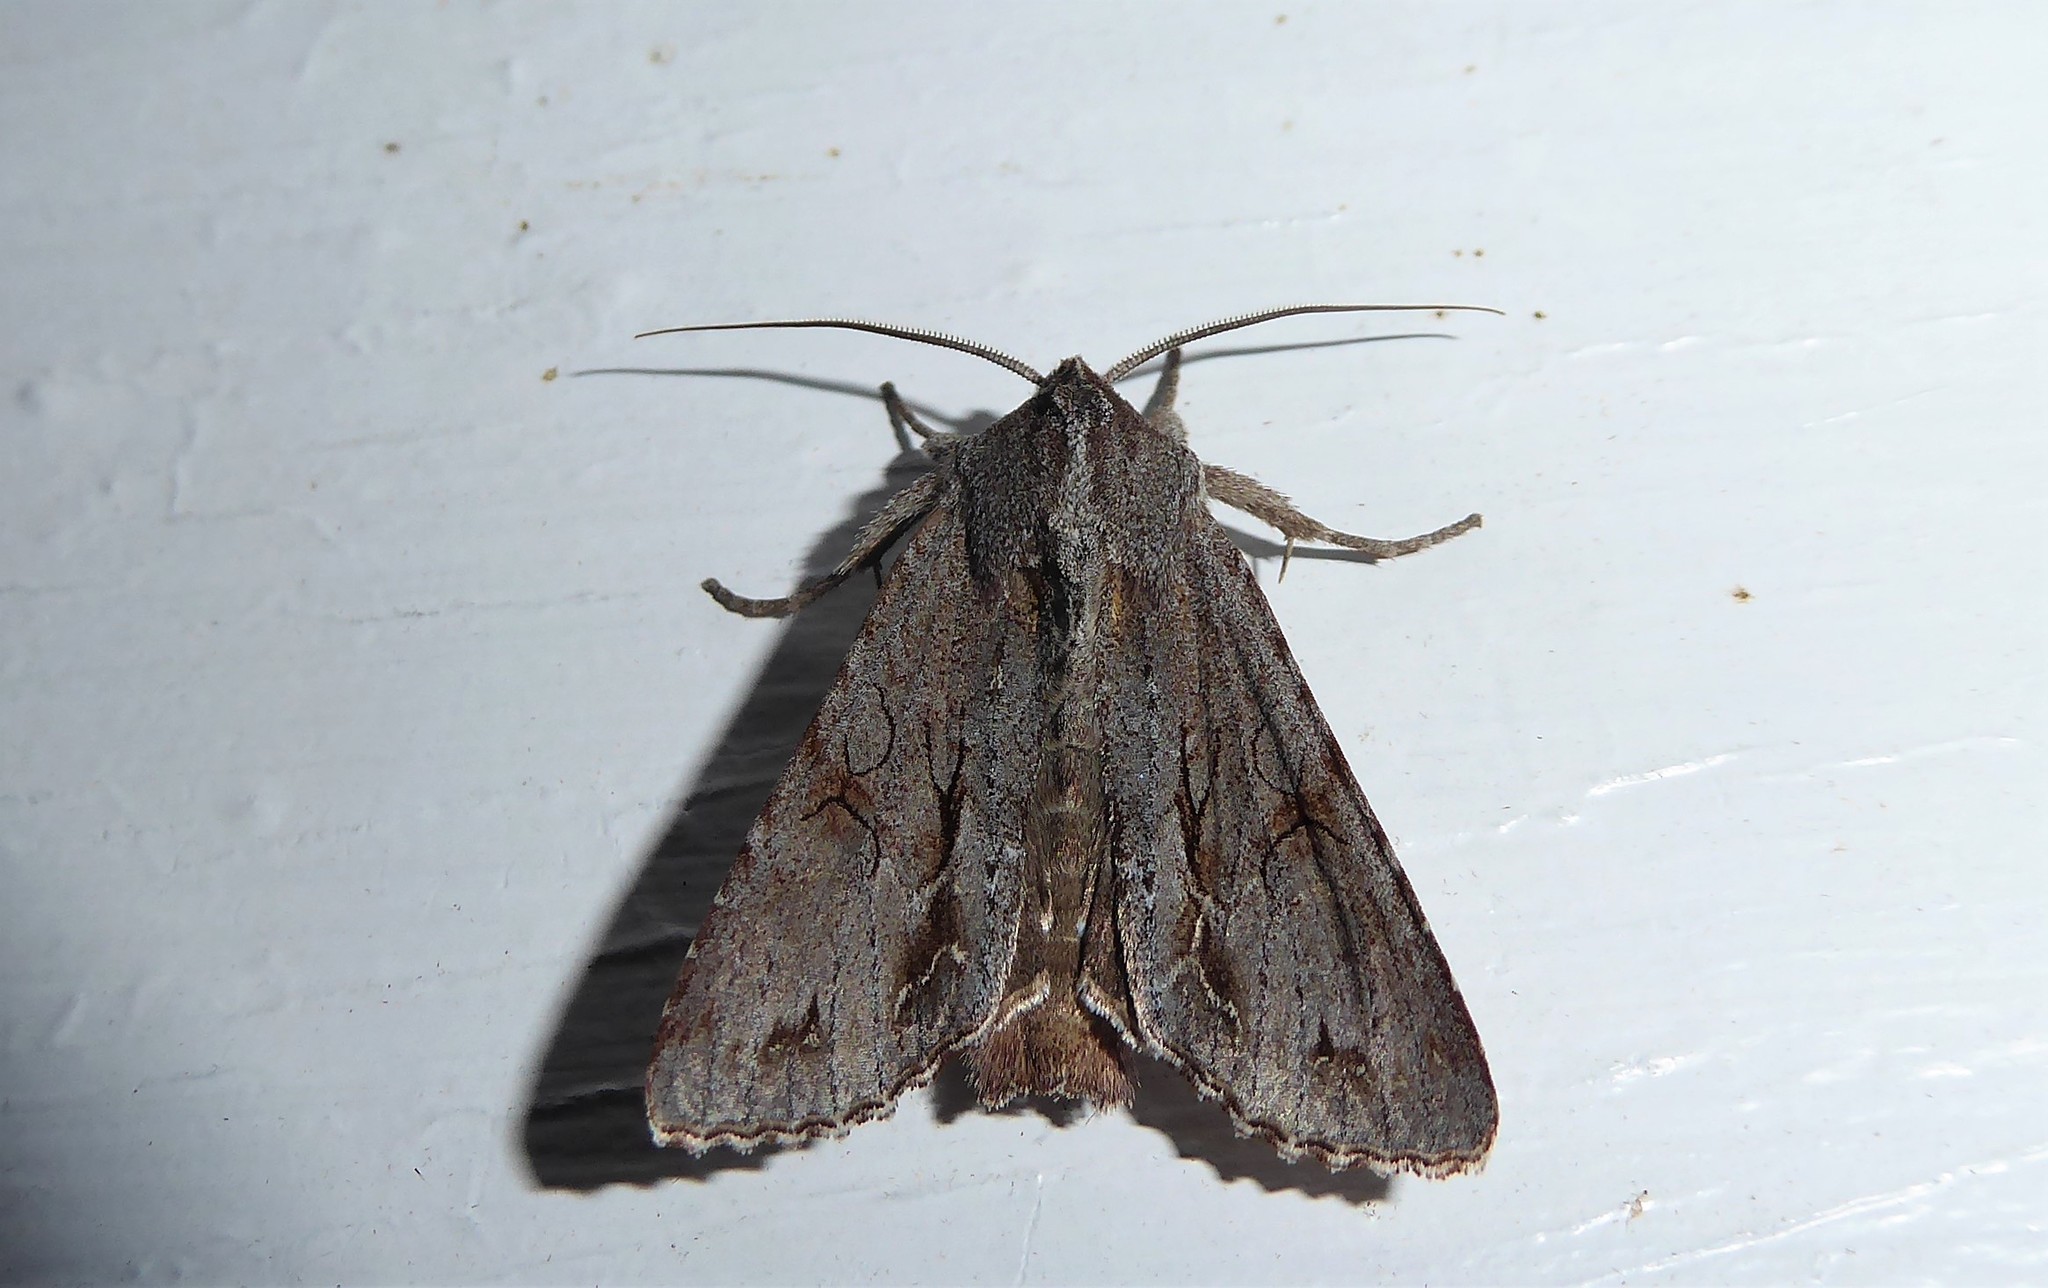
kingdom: Animalia
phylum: Arthropoda
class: Insecta
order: Lepidoptera
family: Noctuidae
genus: Ichneutica
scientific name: Ichneutica
